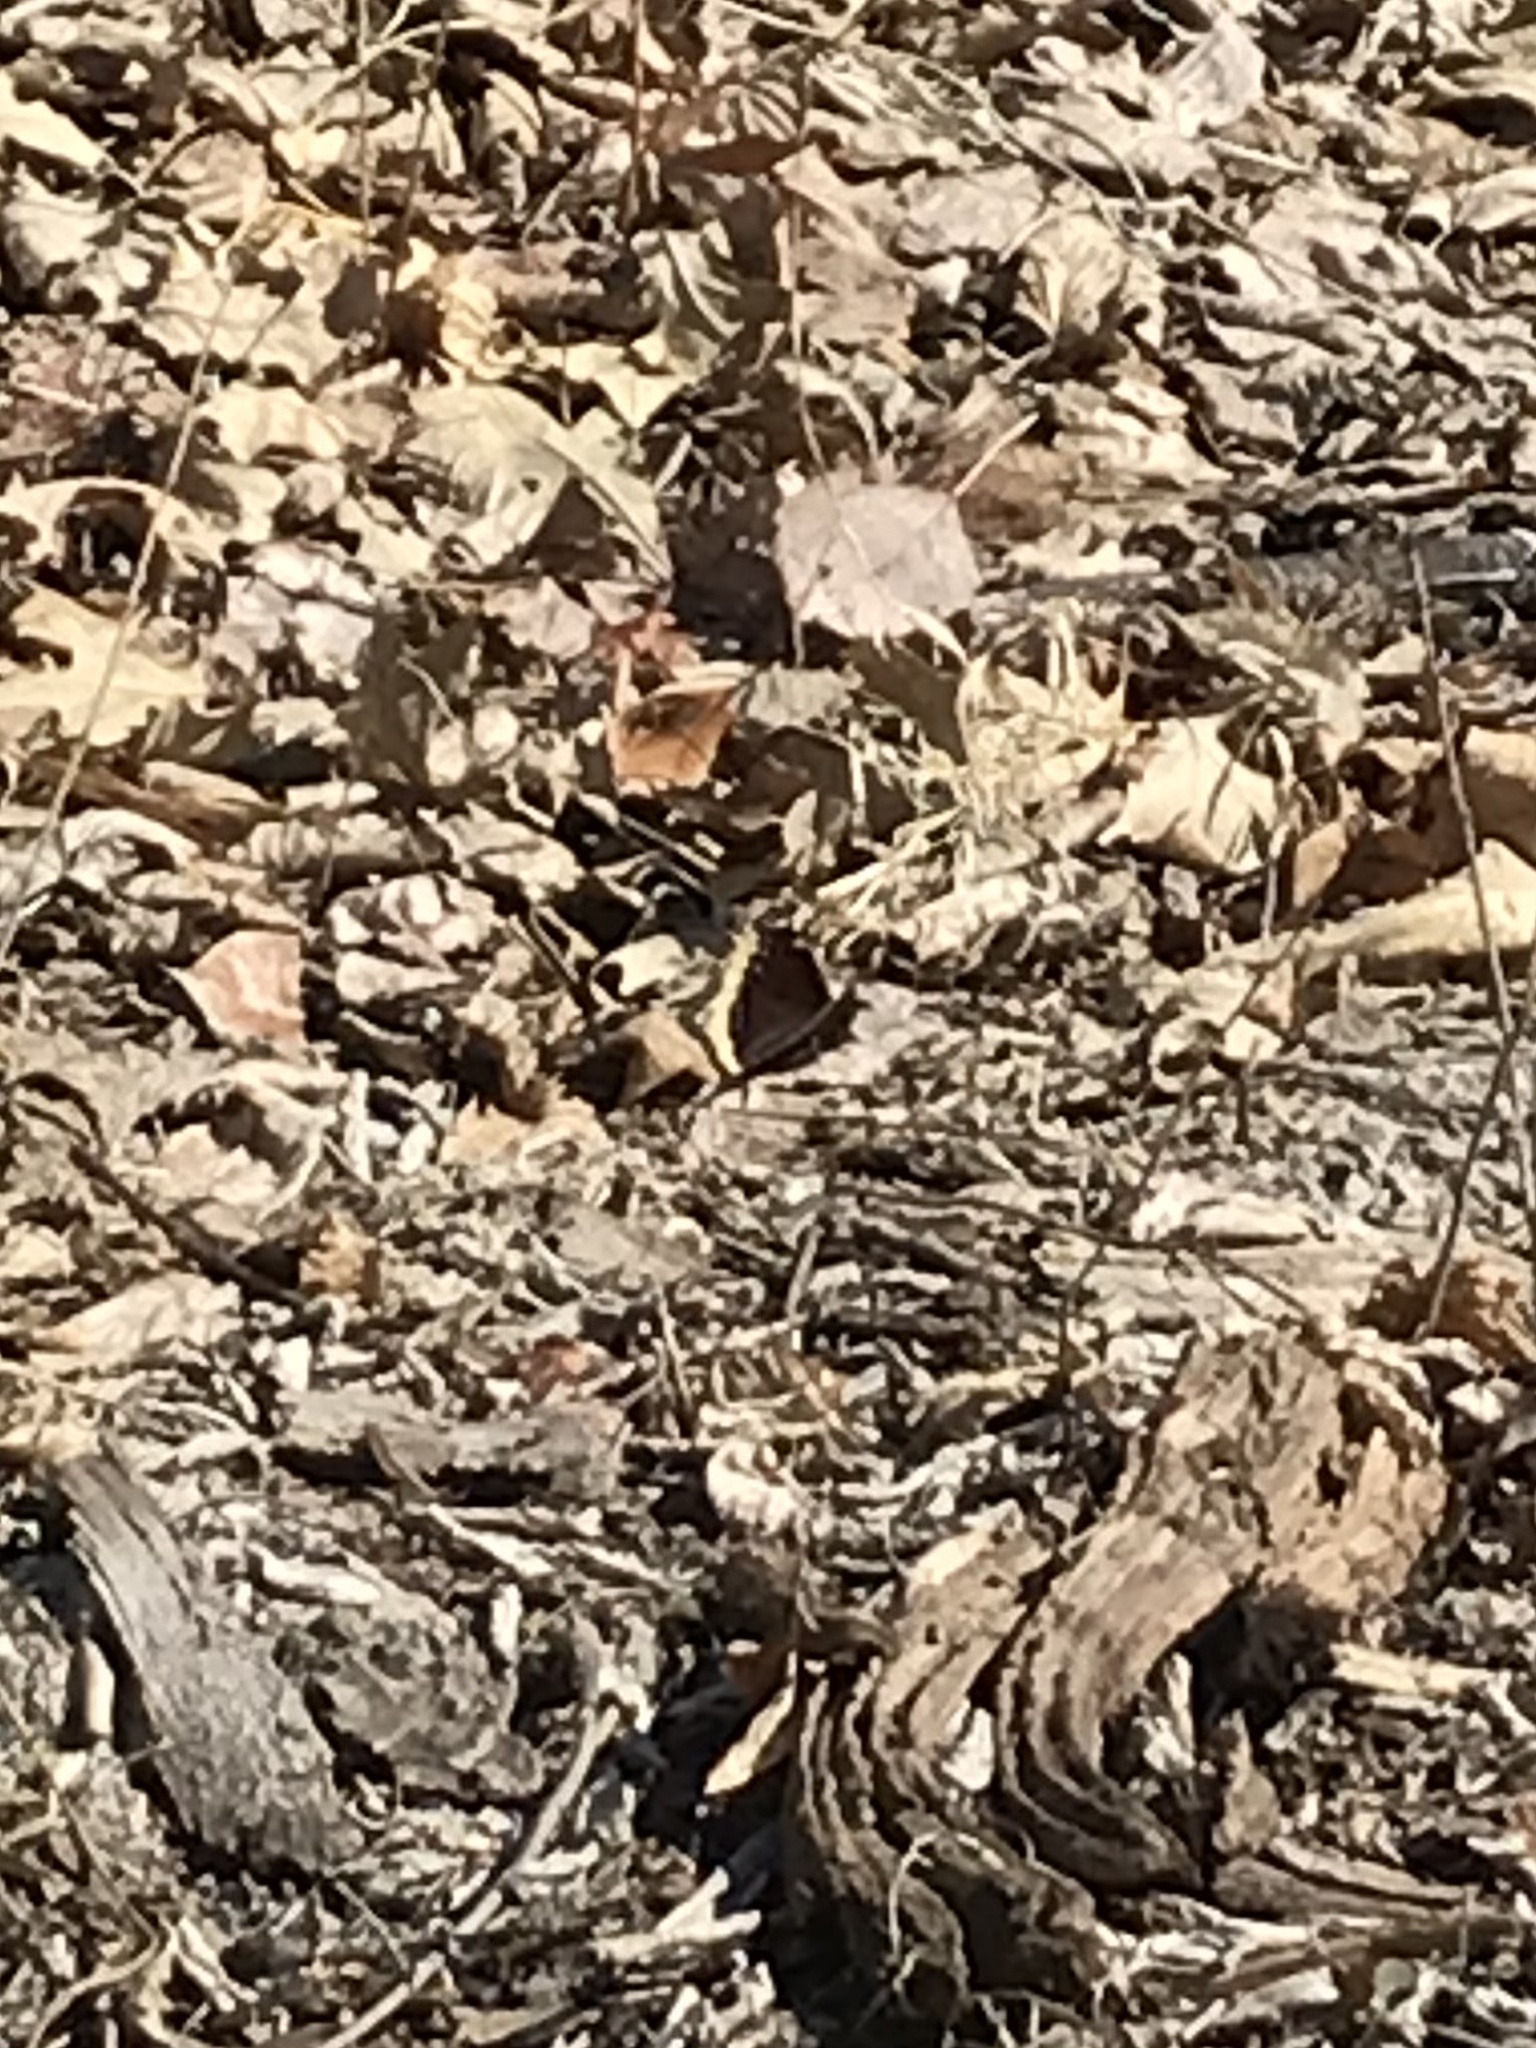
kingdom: Animalia
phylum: Arthropoda
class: Insecta
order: Lepidoptera
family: Nymphalidae
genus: Nymphalis
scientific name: Nymphalis antiopa
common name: Camberwell beauty
